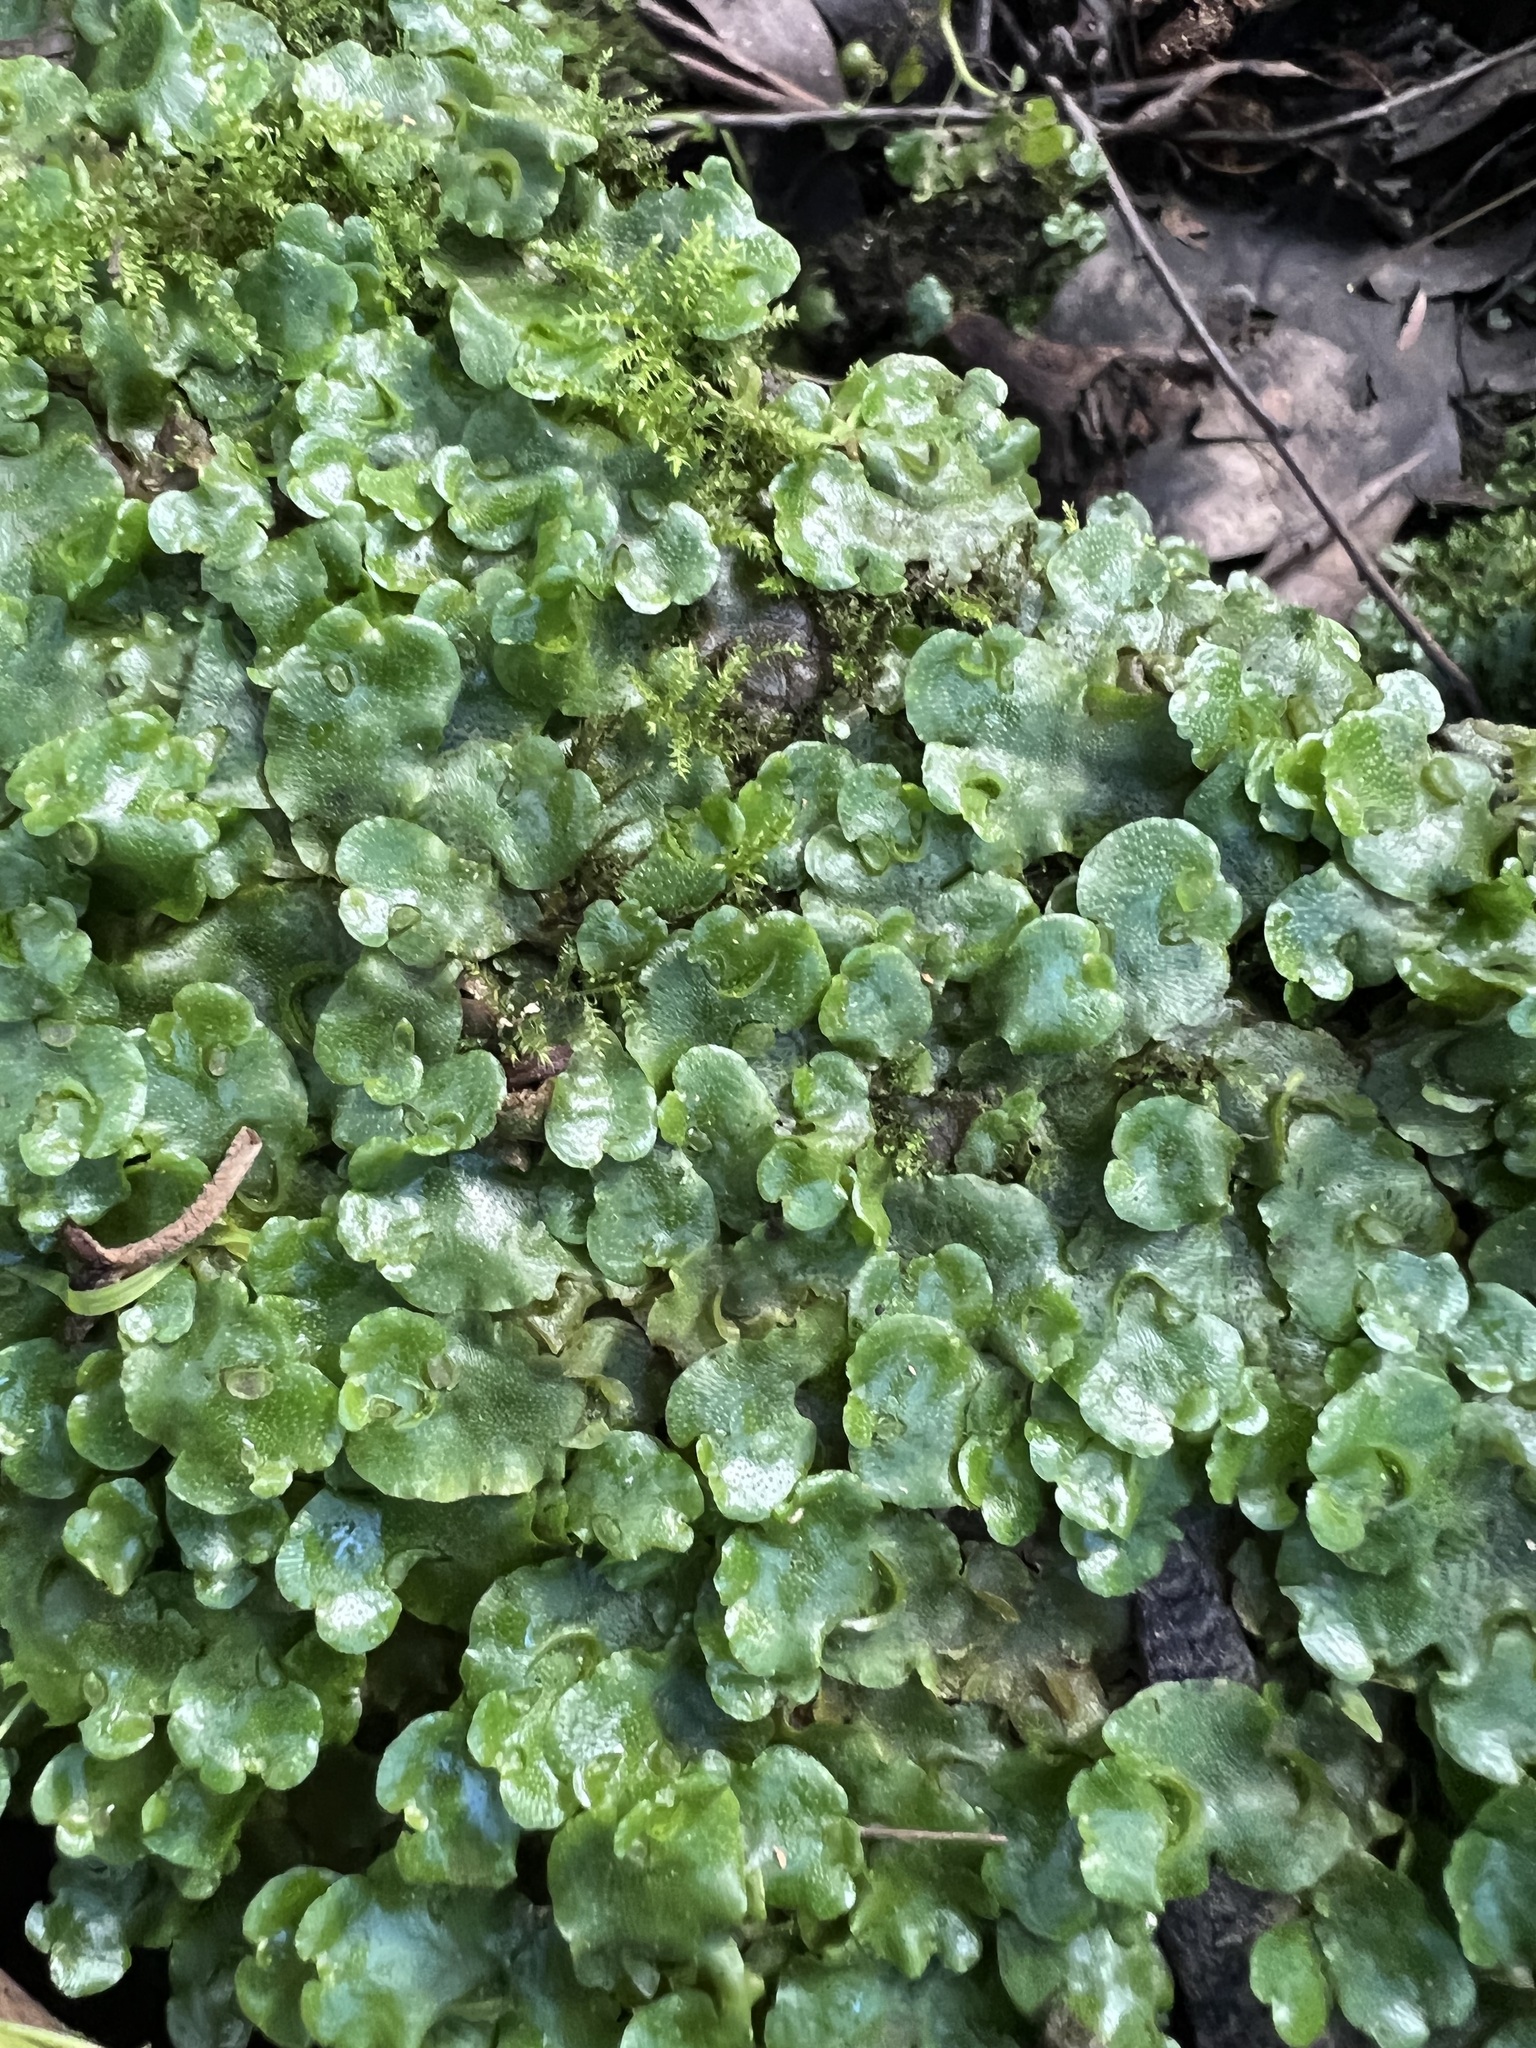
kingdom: Plantae
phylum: Marchantiophyta
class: Marchantiopsida
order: Lunulariales
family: Lunulariaceae
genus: Lunularia
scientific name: Lunularia cruciata
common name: Crescent-cup liverwort
